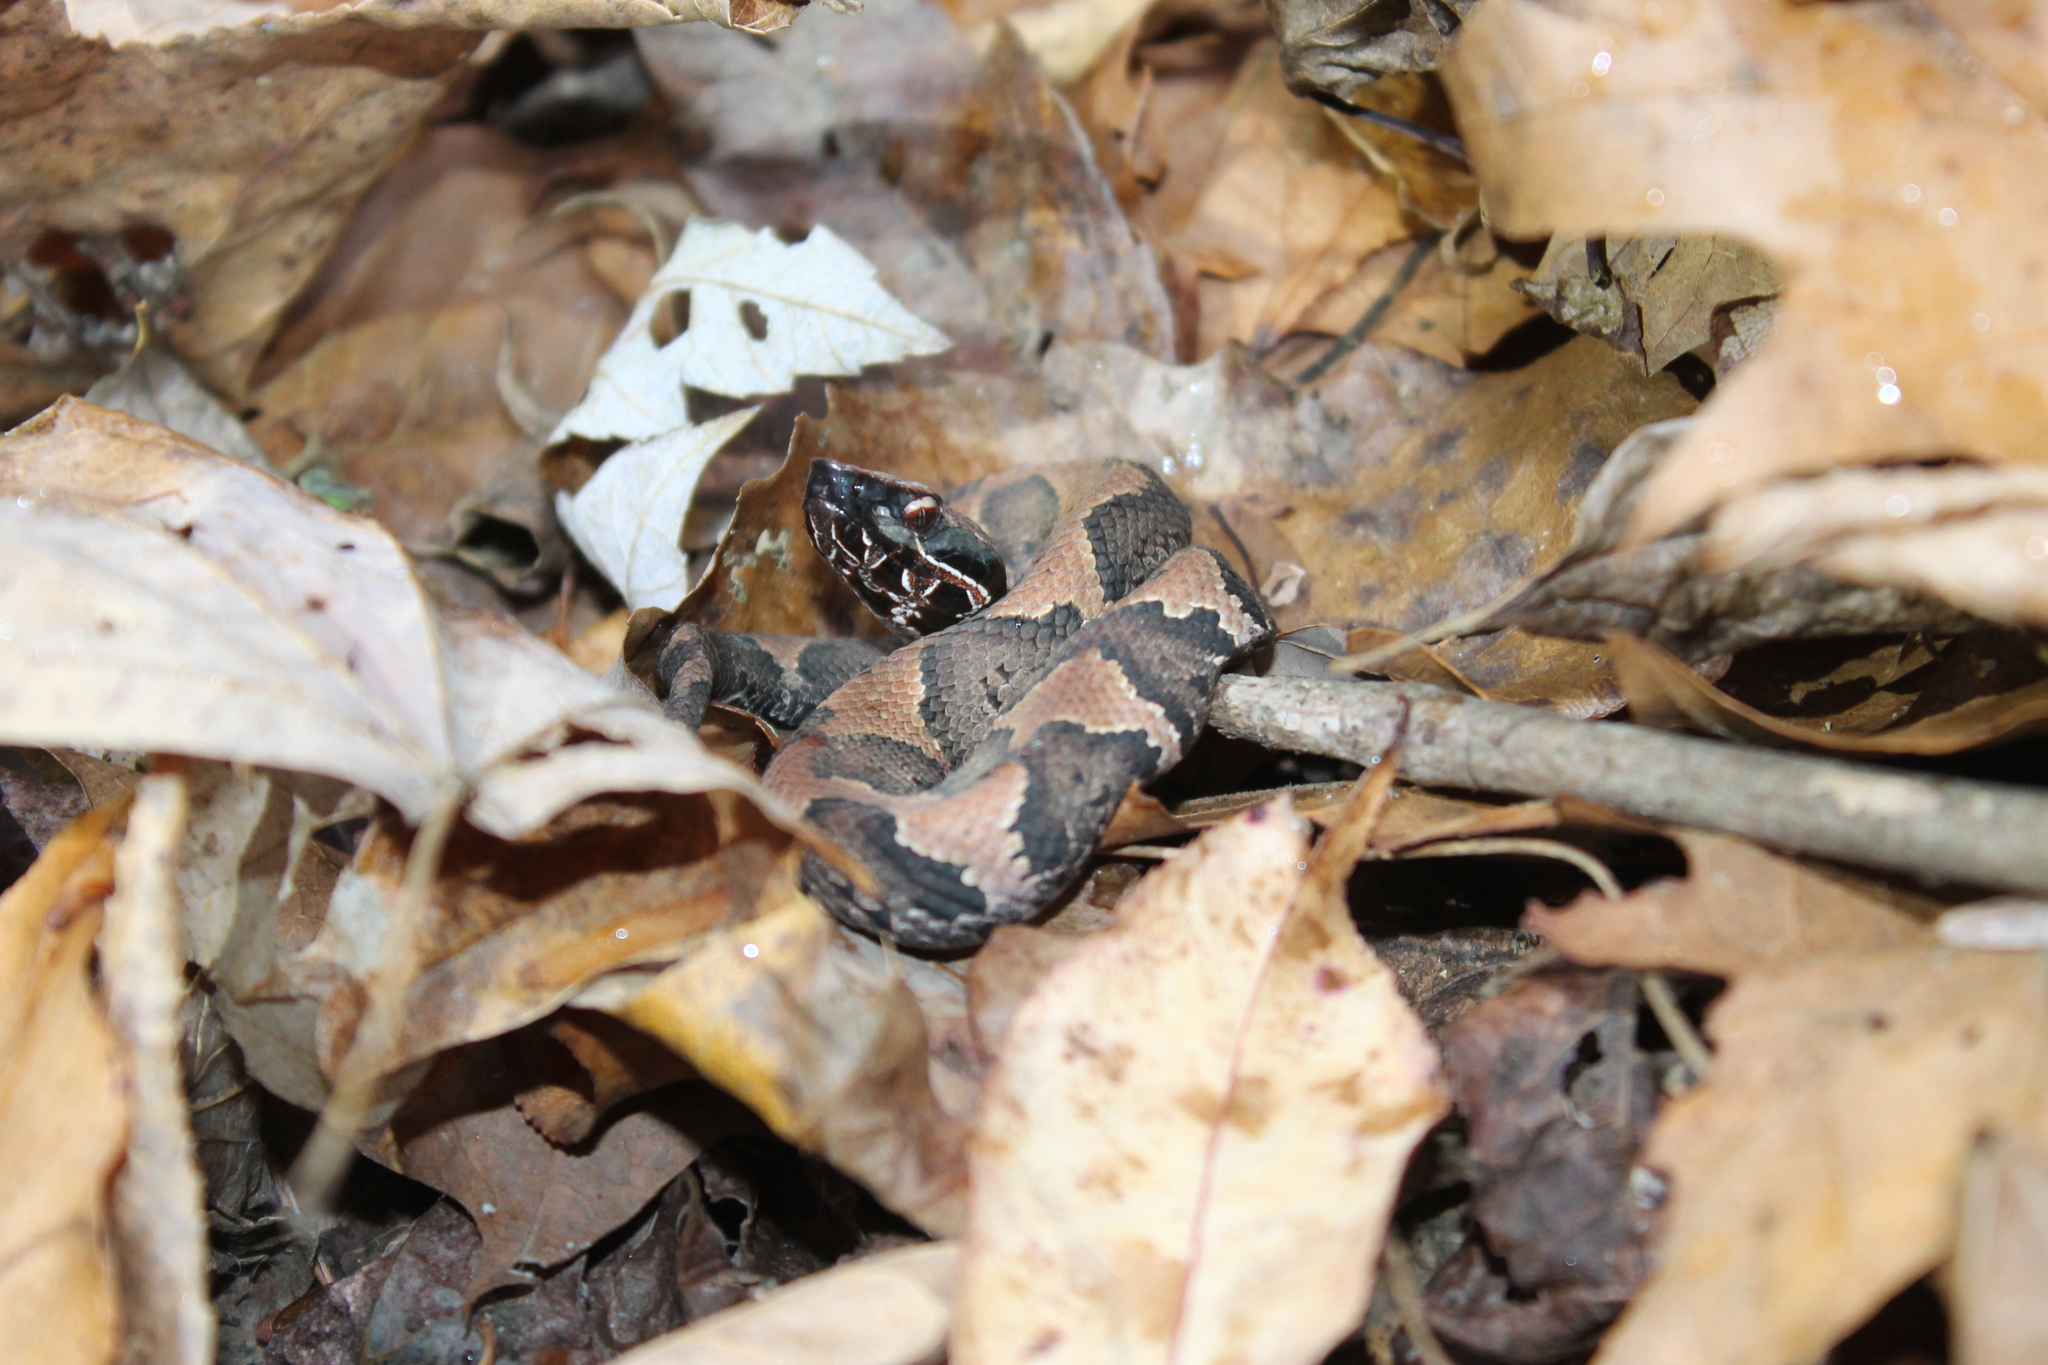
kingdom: Animalia
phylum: Chordata
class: Squamata
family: Viperidae
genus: Agkistrodon
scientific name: Agkistrodon piscivorus
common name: Cottonmouth
